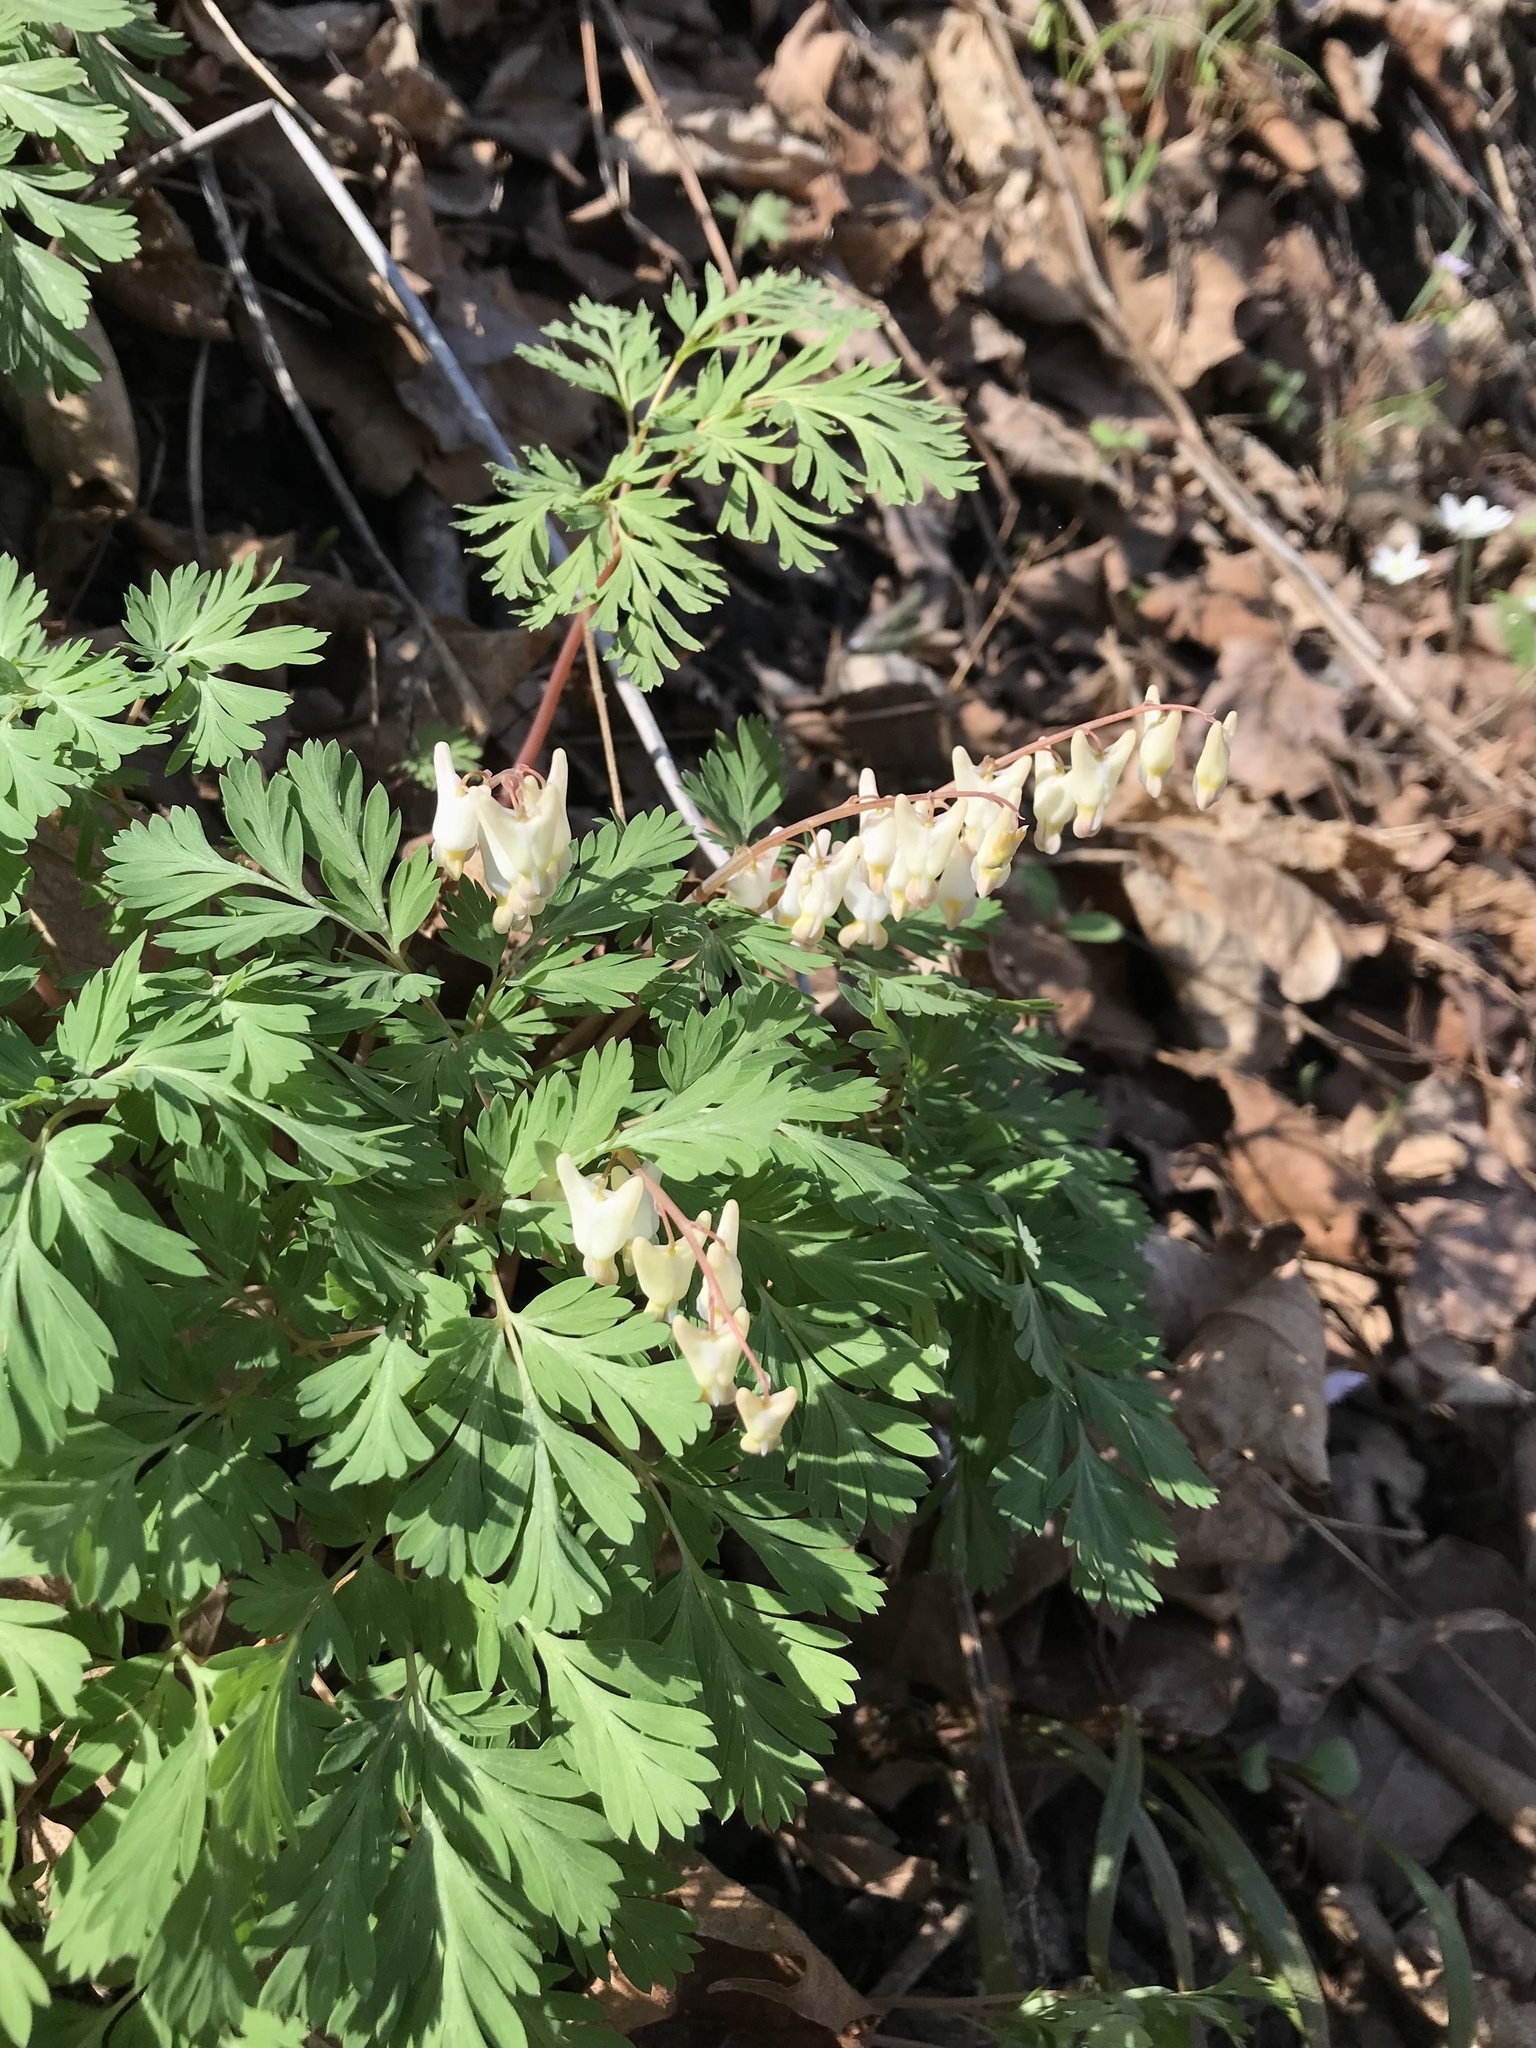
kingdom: Plantae
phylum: Tracheophyta
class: Magnoliopsida
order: Ranunculales
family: Papaveraceae
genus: Dicentra
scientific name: Dicentra cucullaria
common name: Dutchman's breeches
